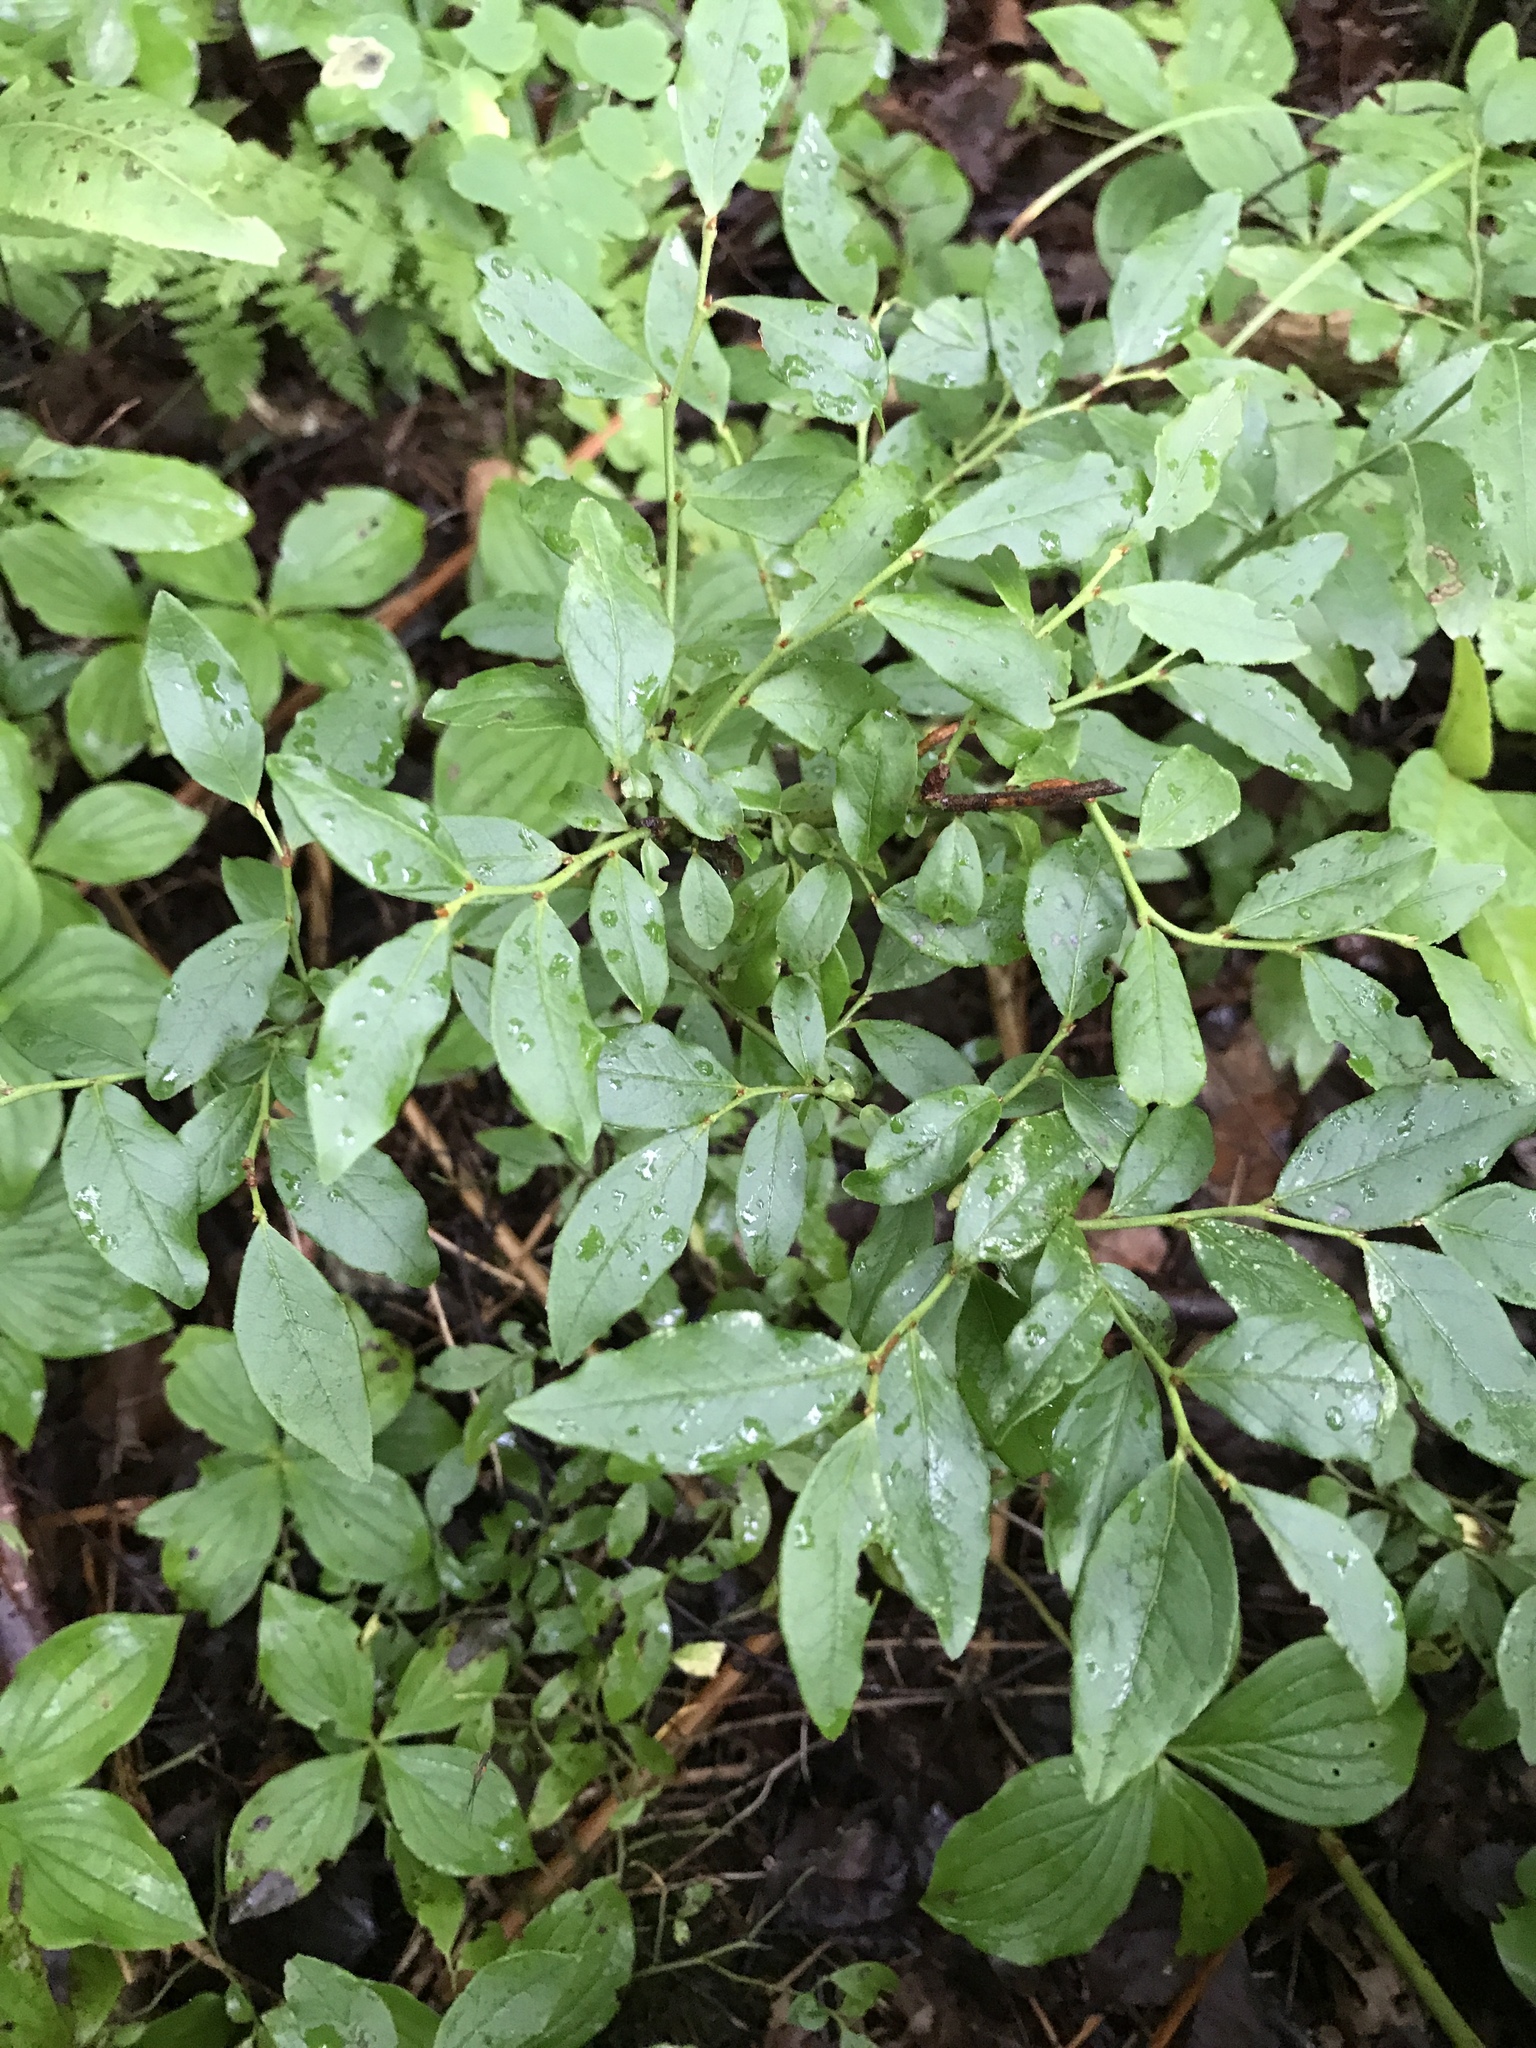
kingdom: Plantae
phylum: Tracheophyta
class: Magnoliopsida
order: Ericales
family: Ericaceae
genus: Vaccinium
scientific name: Vaccinium angustifolium
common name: Early lowbush blueberry
